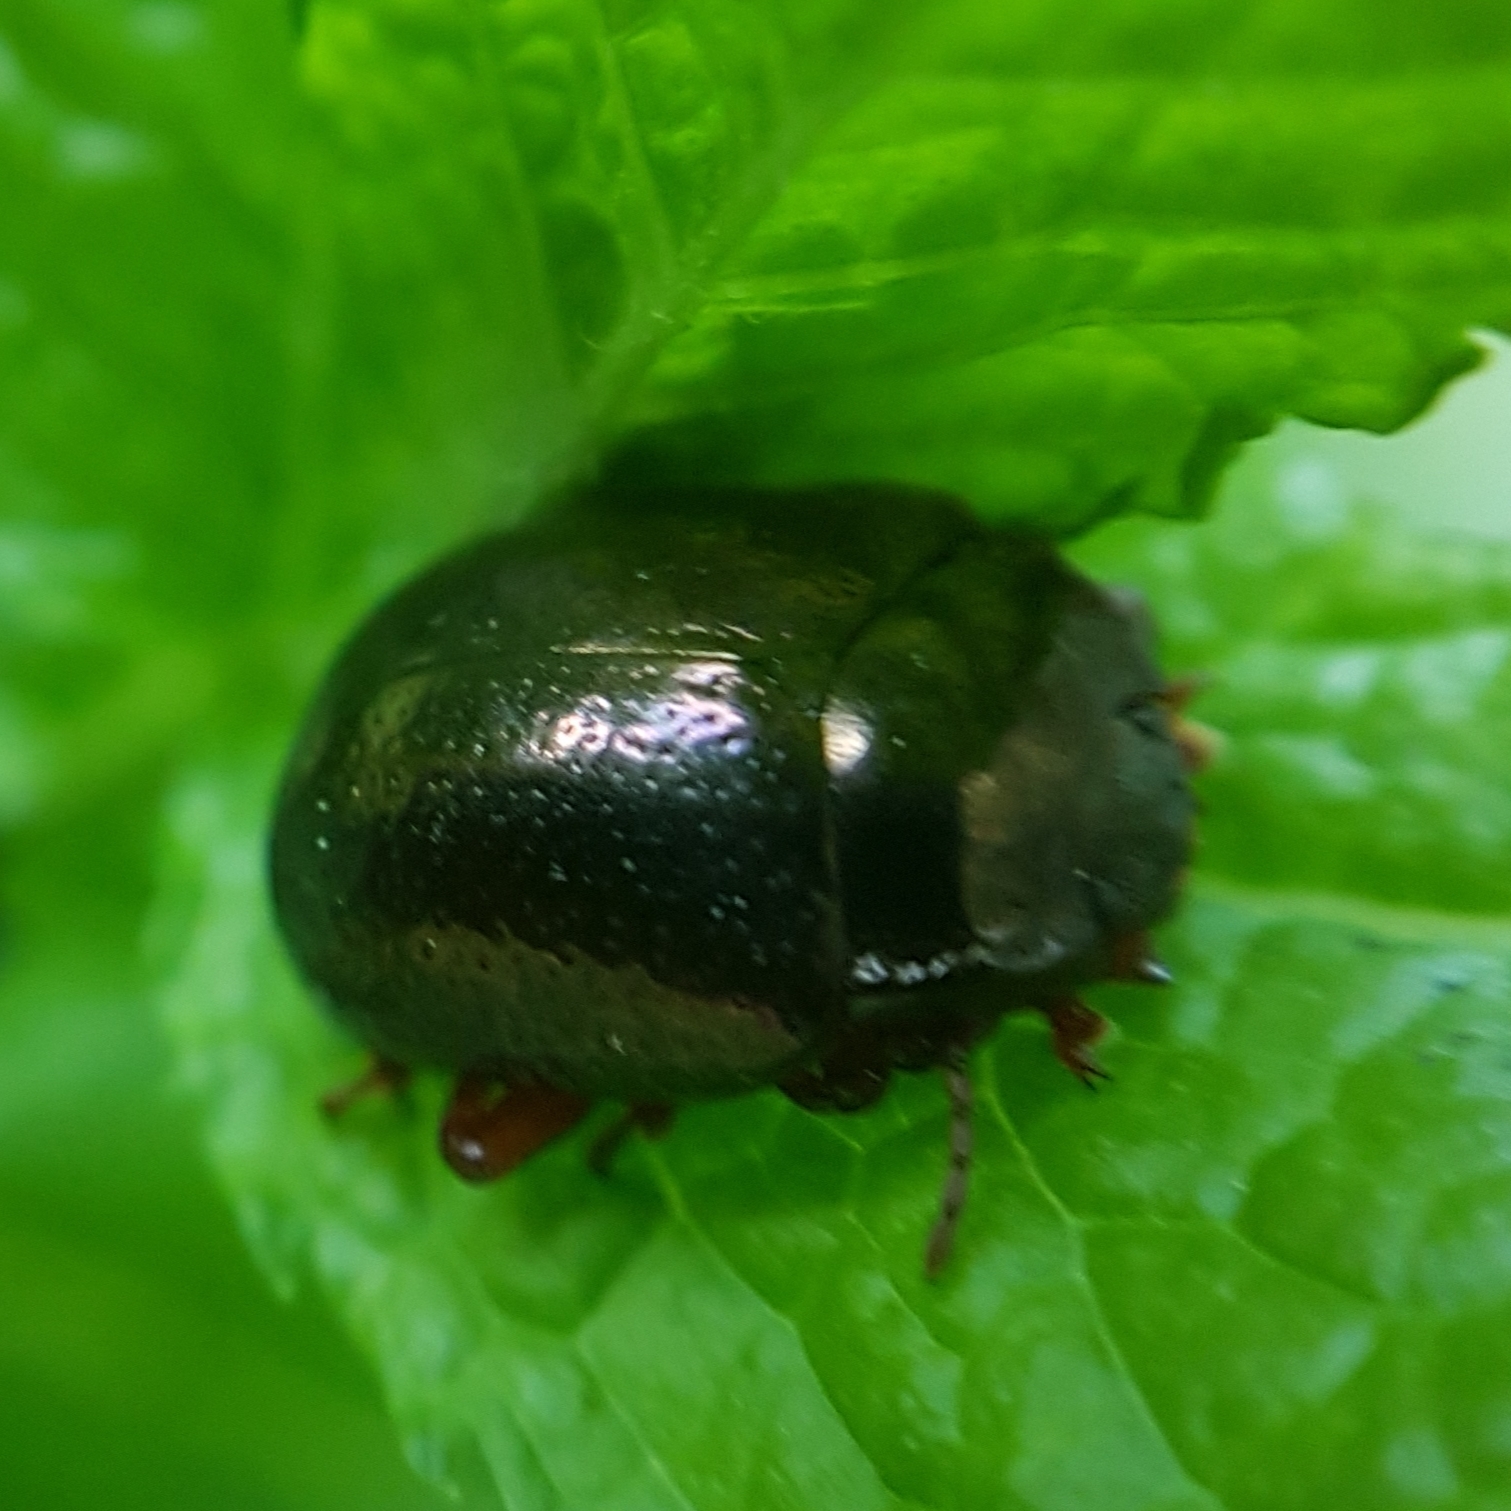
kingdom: Animalia
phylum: Arthropoda
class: Insecta
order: Coleoptera
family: Chrysomelidae
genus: Chrysolina
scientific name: Chrysolina bankii
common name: Leaf beetle
